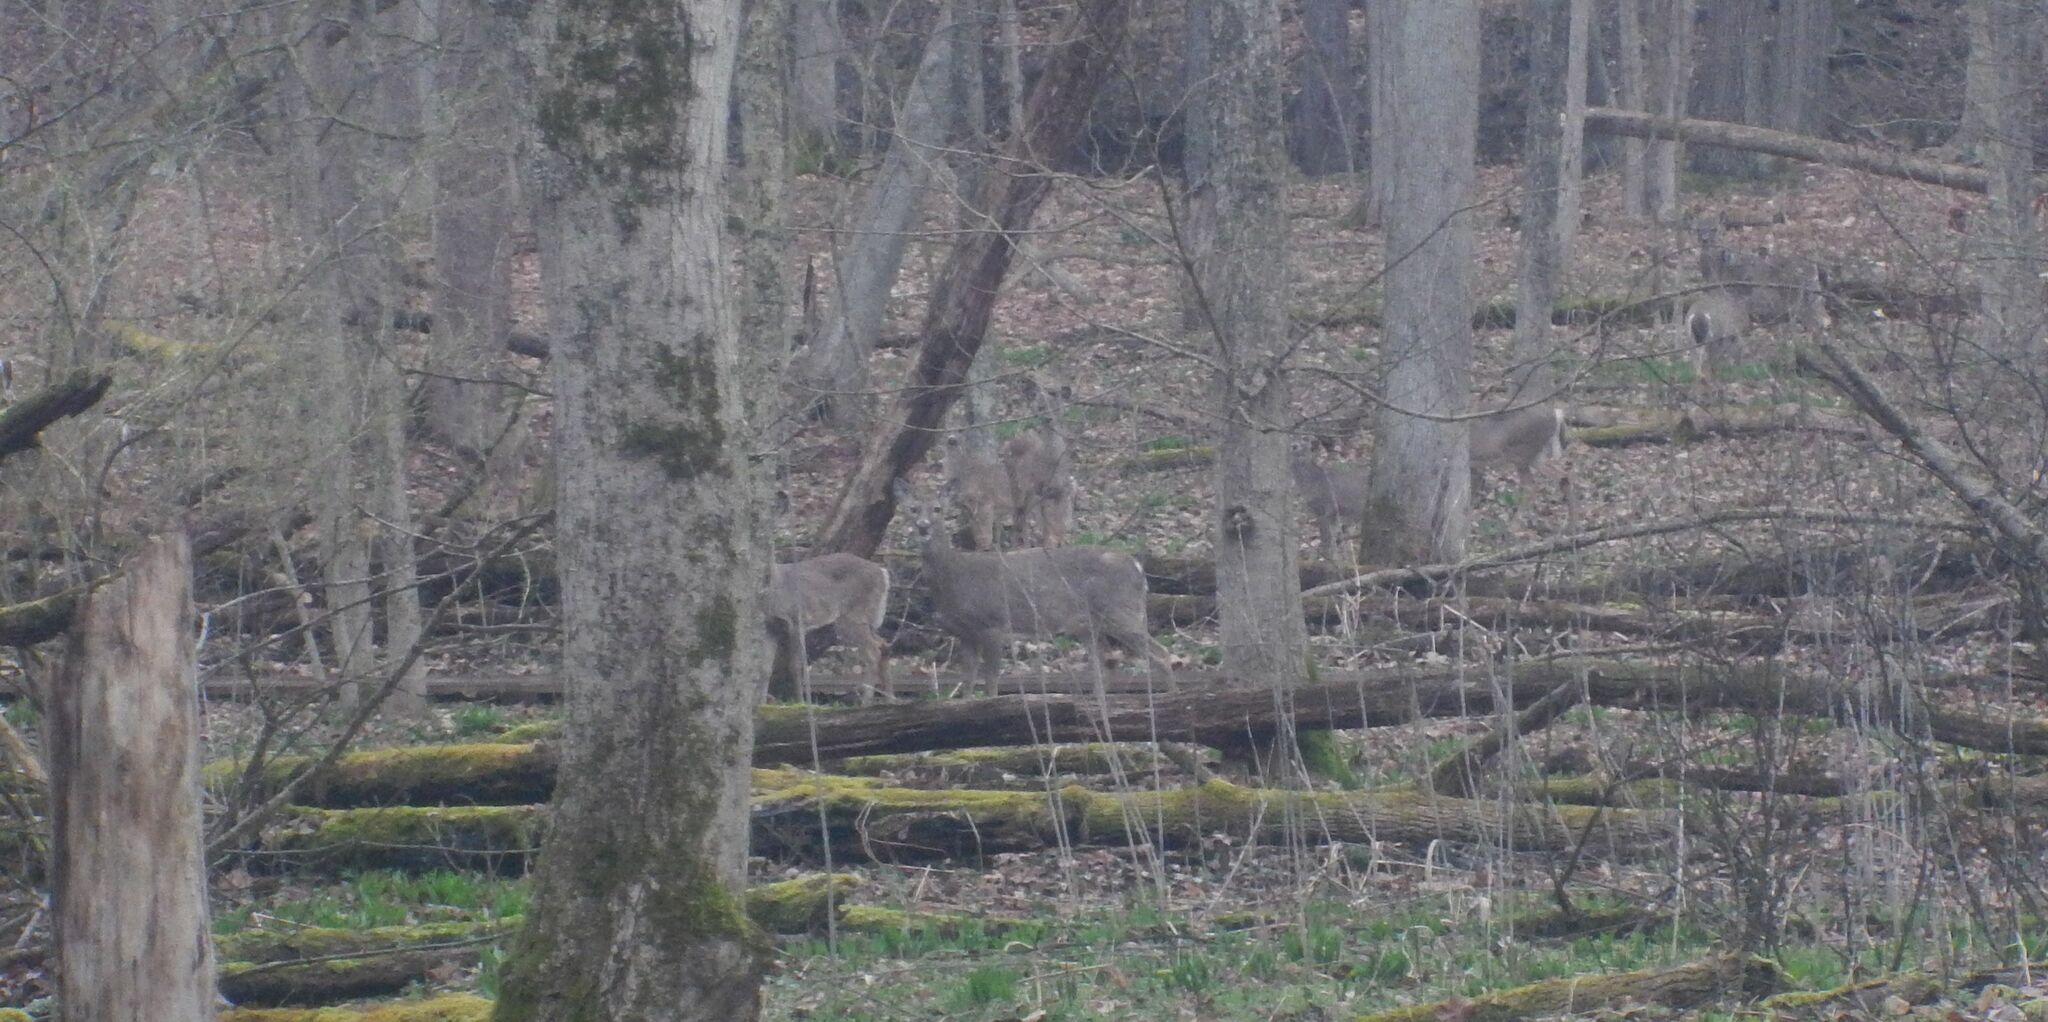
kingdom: Animalia
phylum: Chordata
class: Mammalia
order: Artiodactyla
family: Cervidae
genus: Odocoileus
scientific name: Odocoileus virginianus
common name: White-tailed deer
